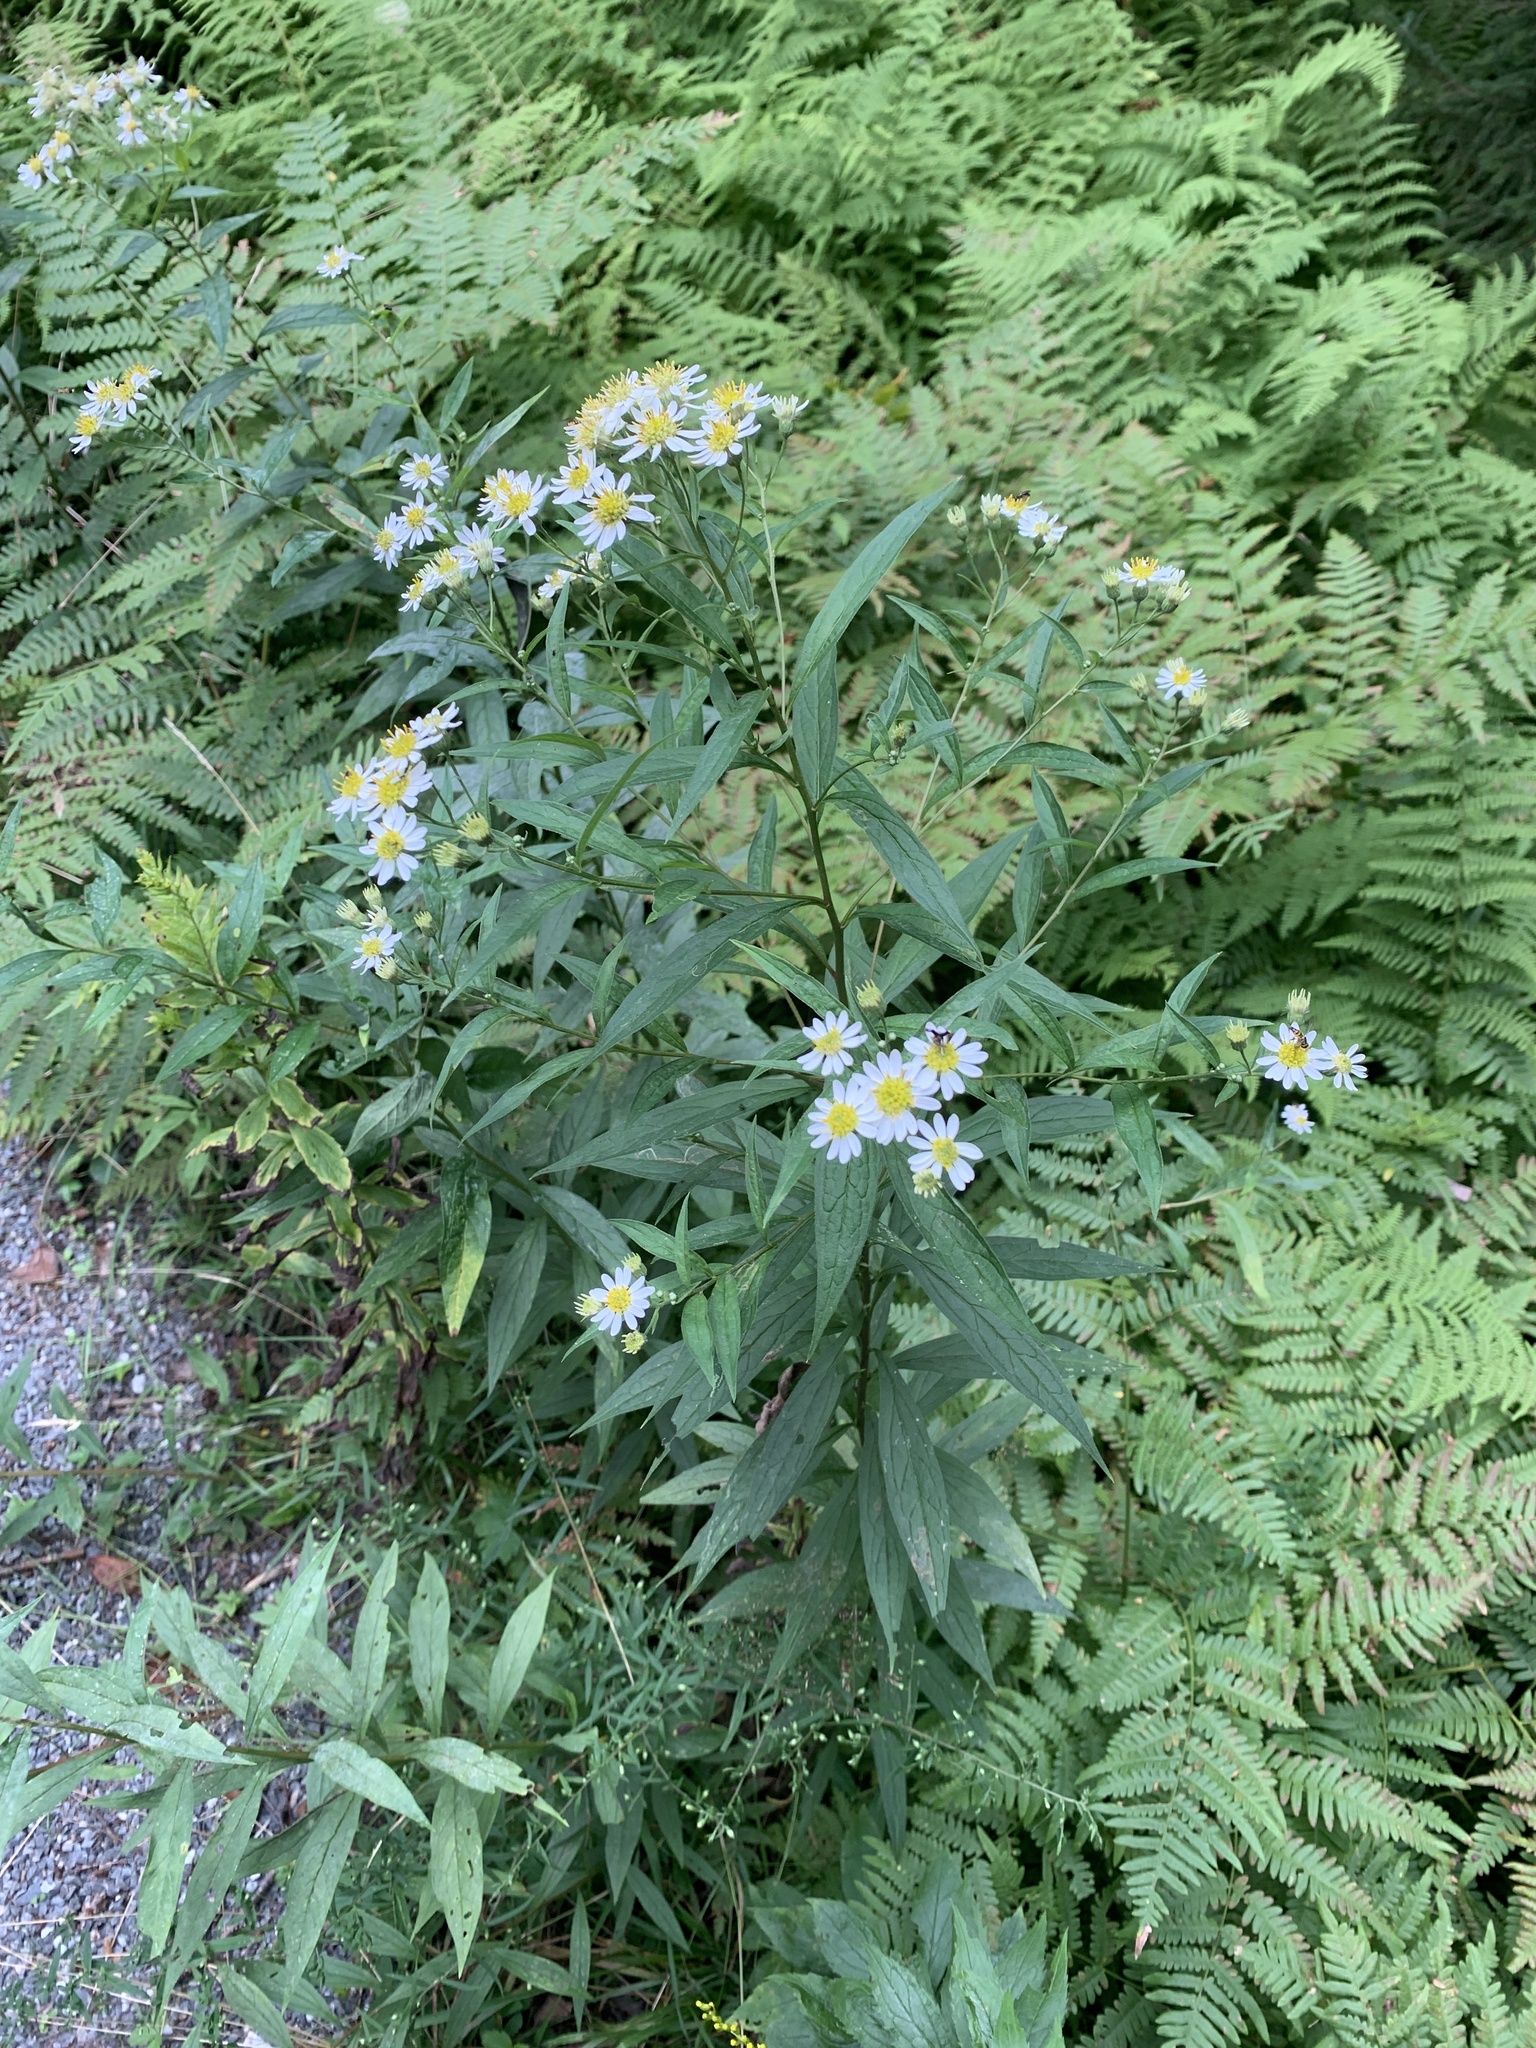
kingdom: Plantae
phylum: Tracheophyta
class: Magnoliopsida
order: Asterales
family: Asteraceae
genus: Doellingeria
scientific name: Doellingeria umbellata
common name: Flat-top white aster
